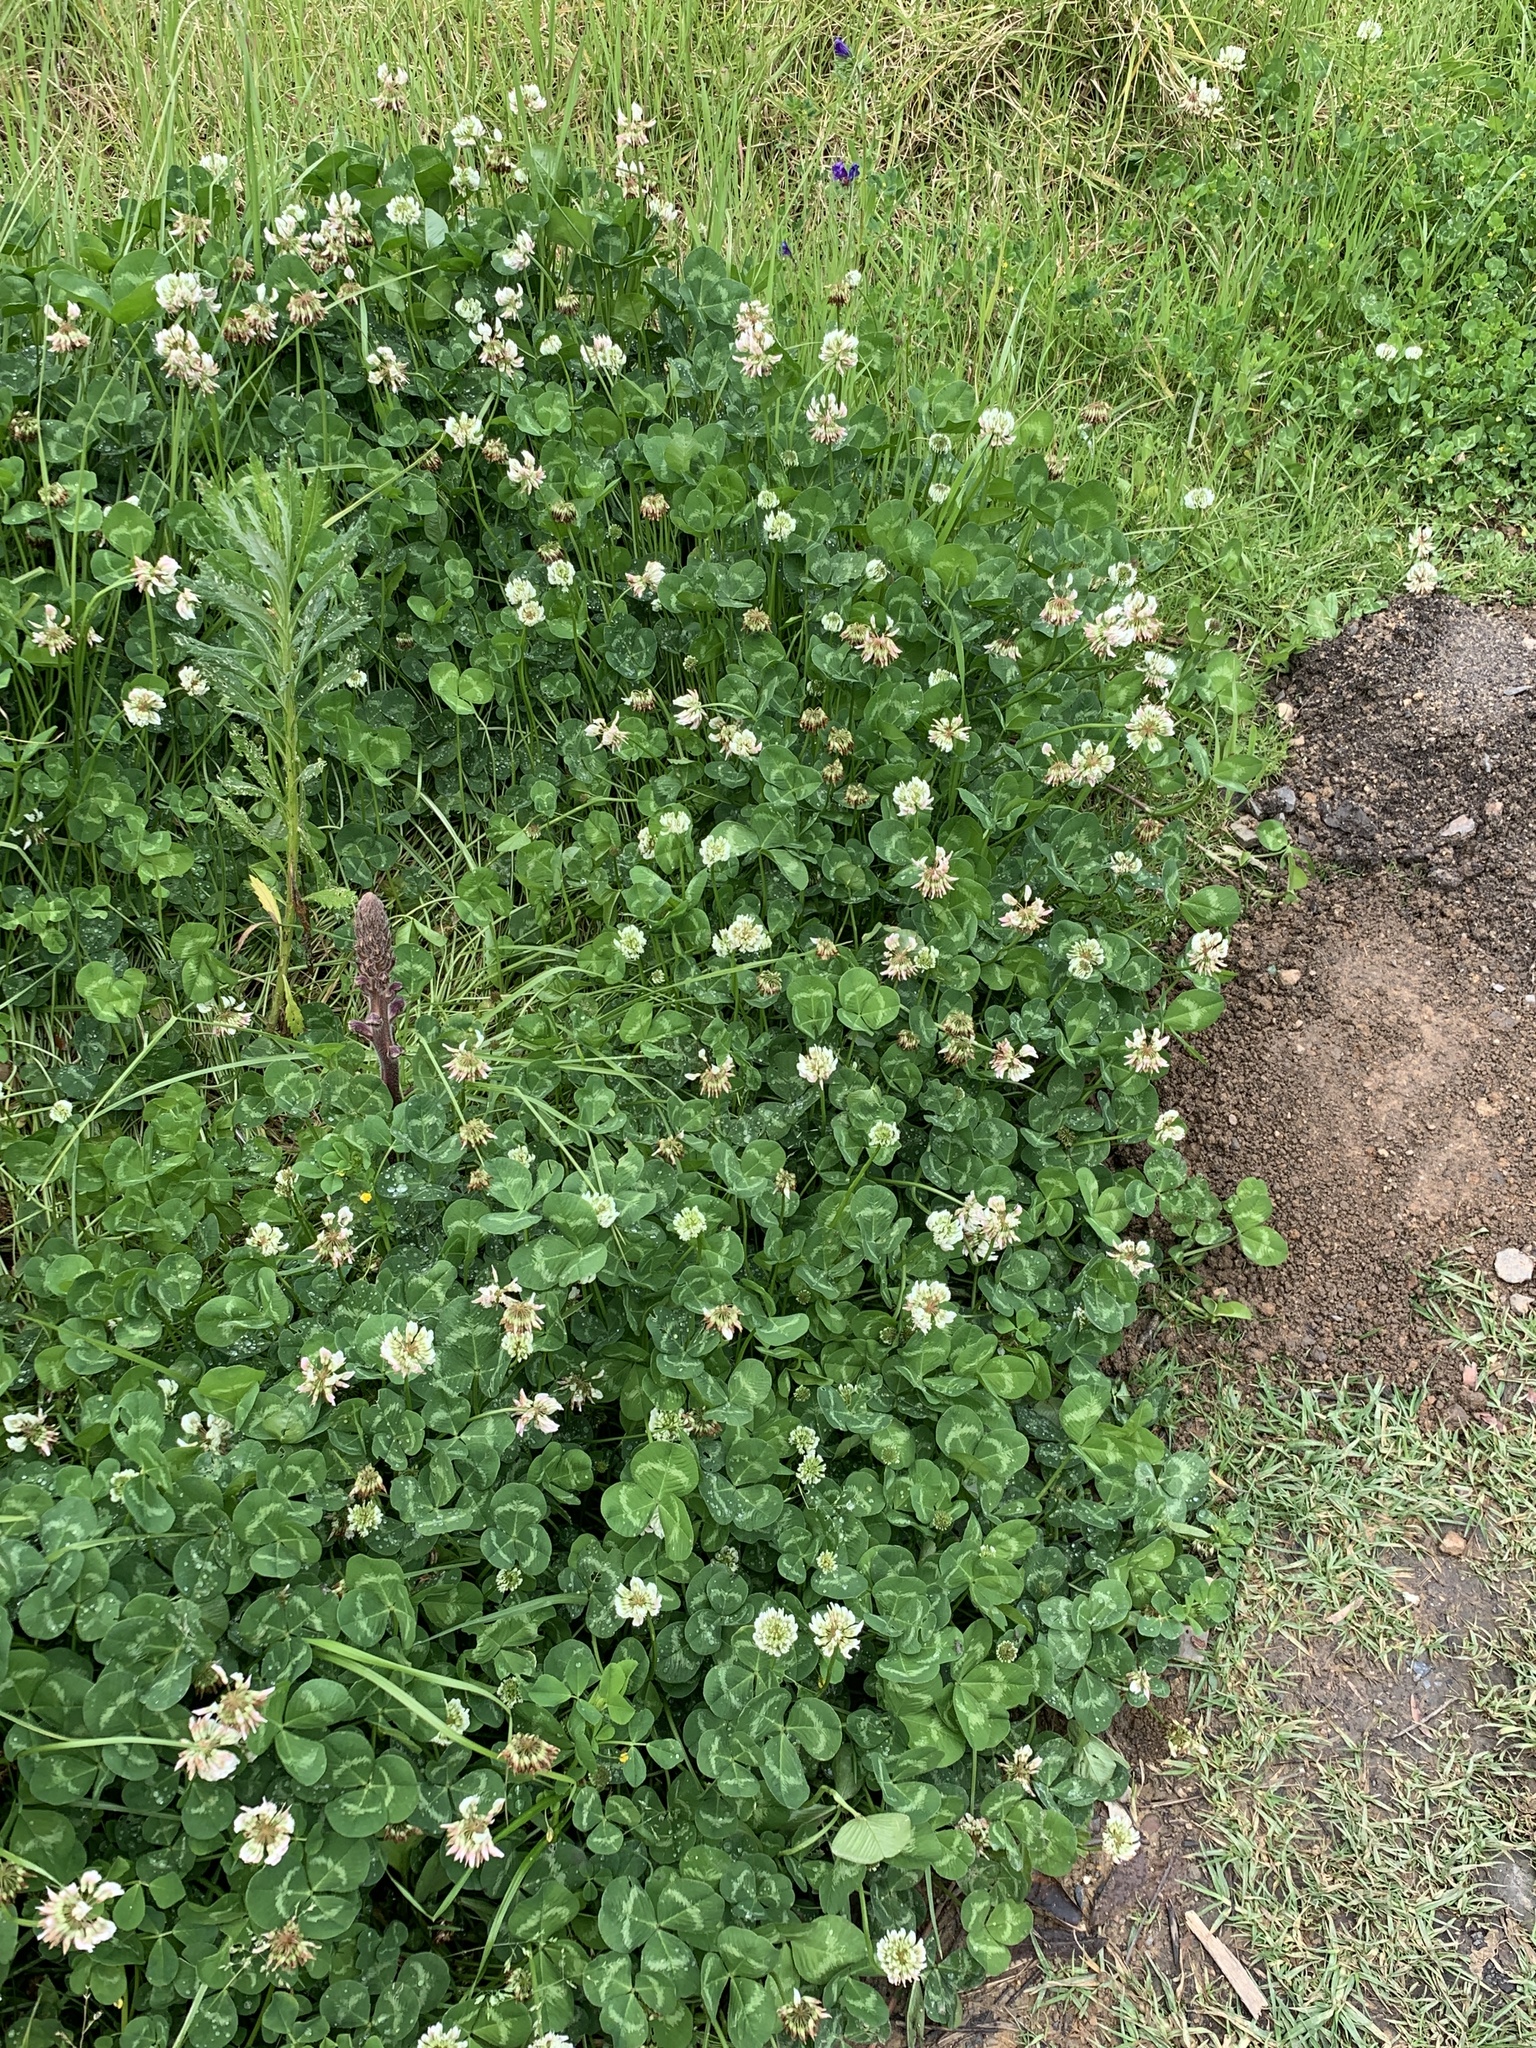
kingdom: Plantae
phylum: Tracheophyta
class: Magnoliopsida
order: Fabales
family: Fabaceae
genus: Trifolium
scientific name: Trifolium repens
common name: White clover
